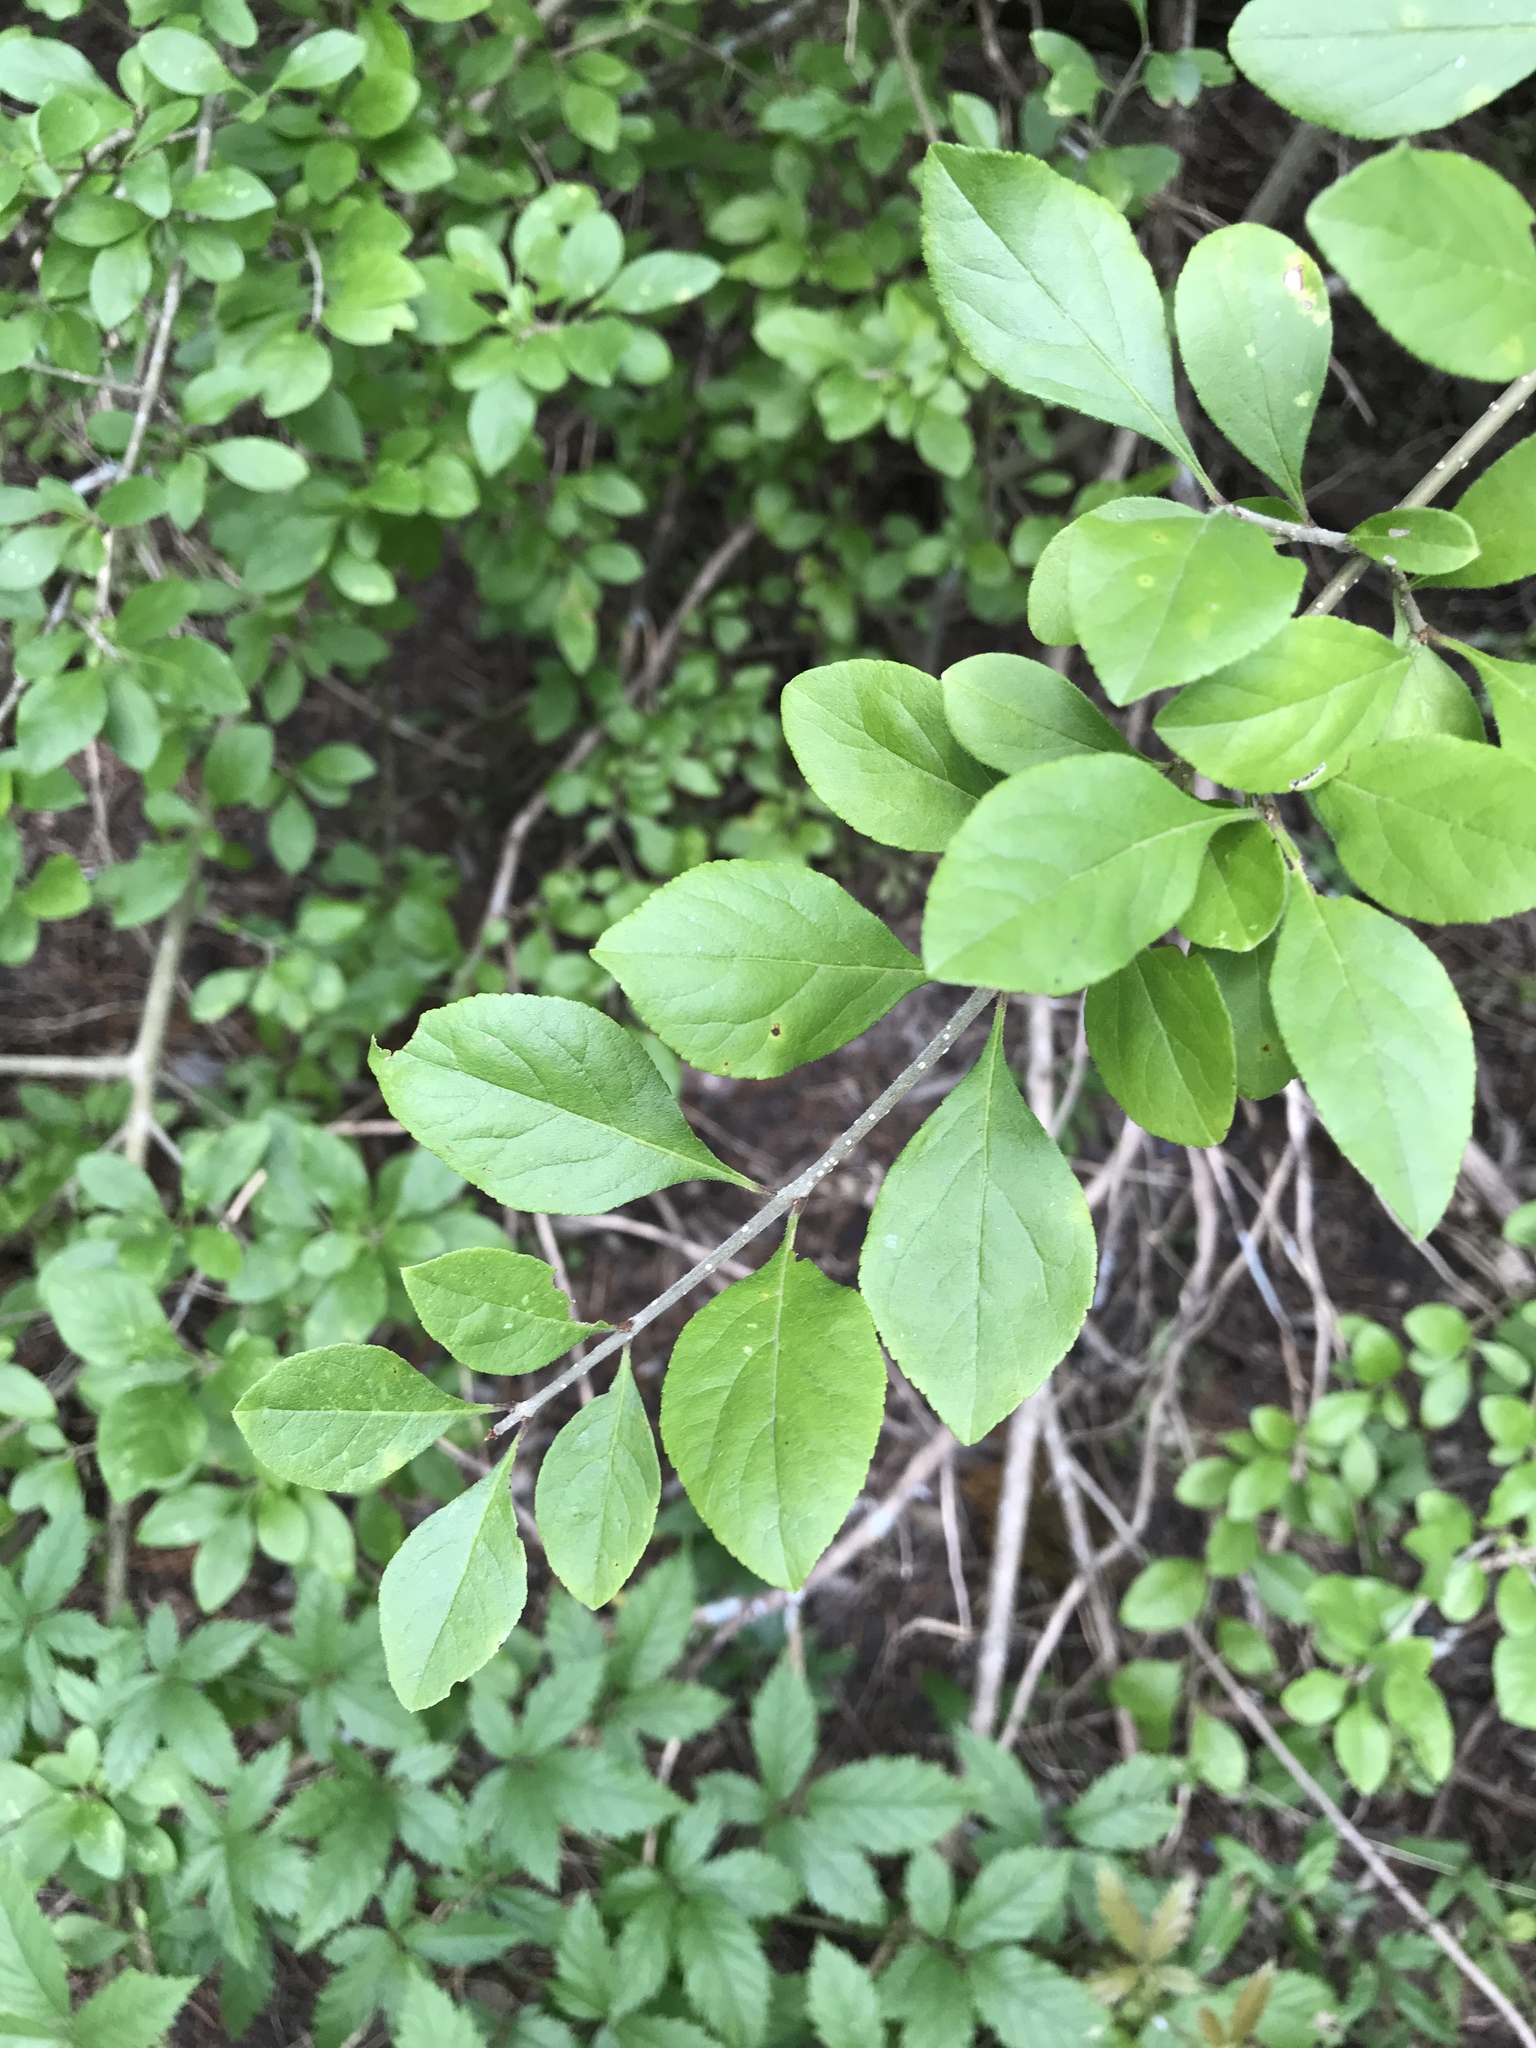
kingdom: Plantae
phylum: Tracheophyta
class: Magnoliopsida
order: Lamiales
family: Oleaceae
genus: Forestiera
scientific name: Forestiera pubescens
